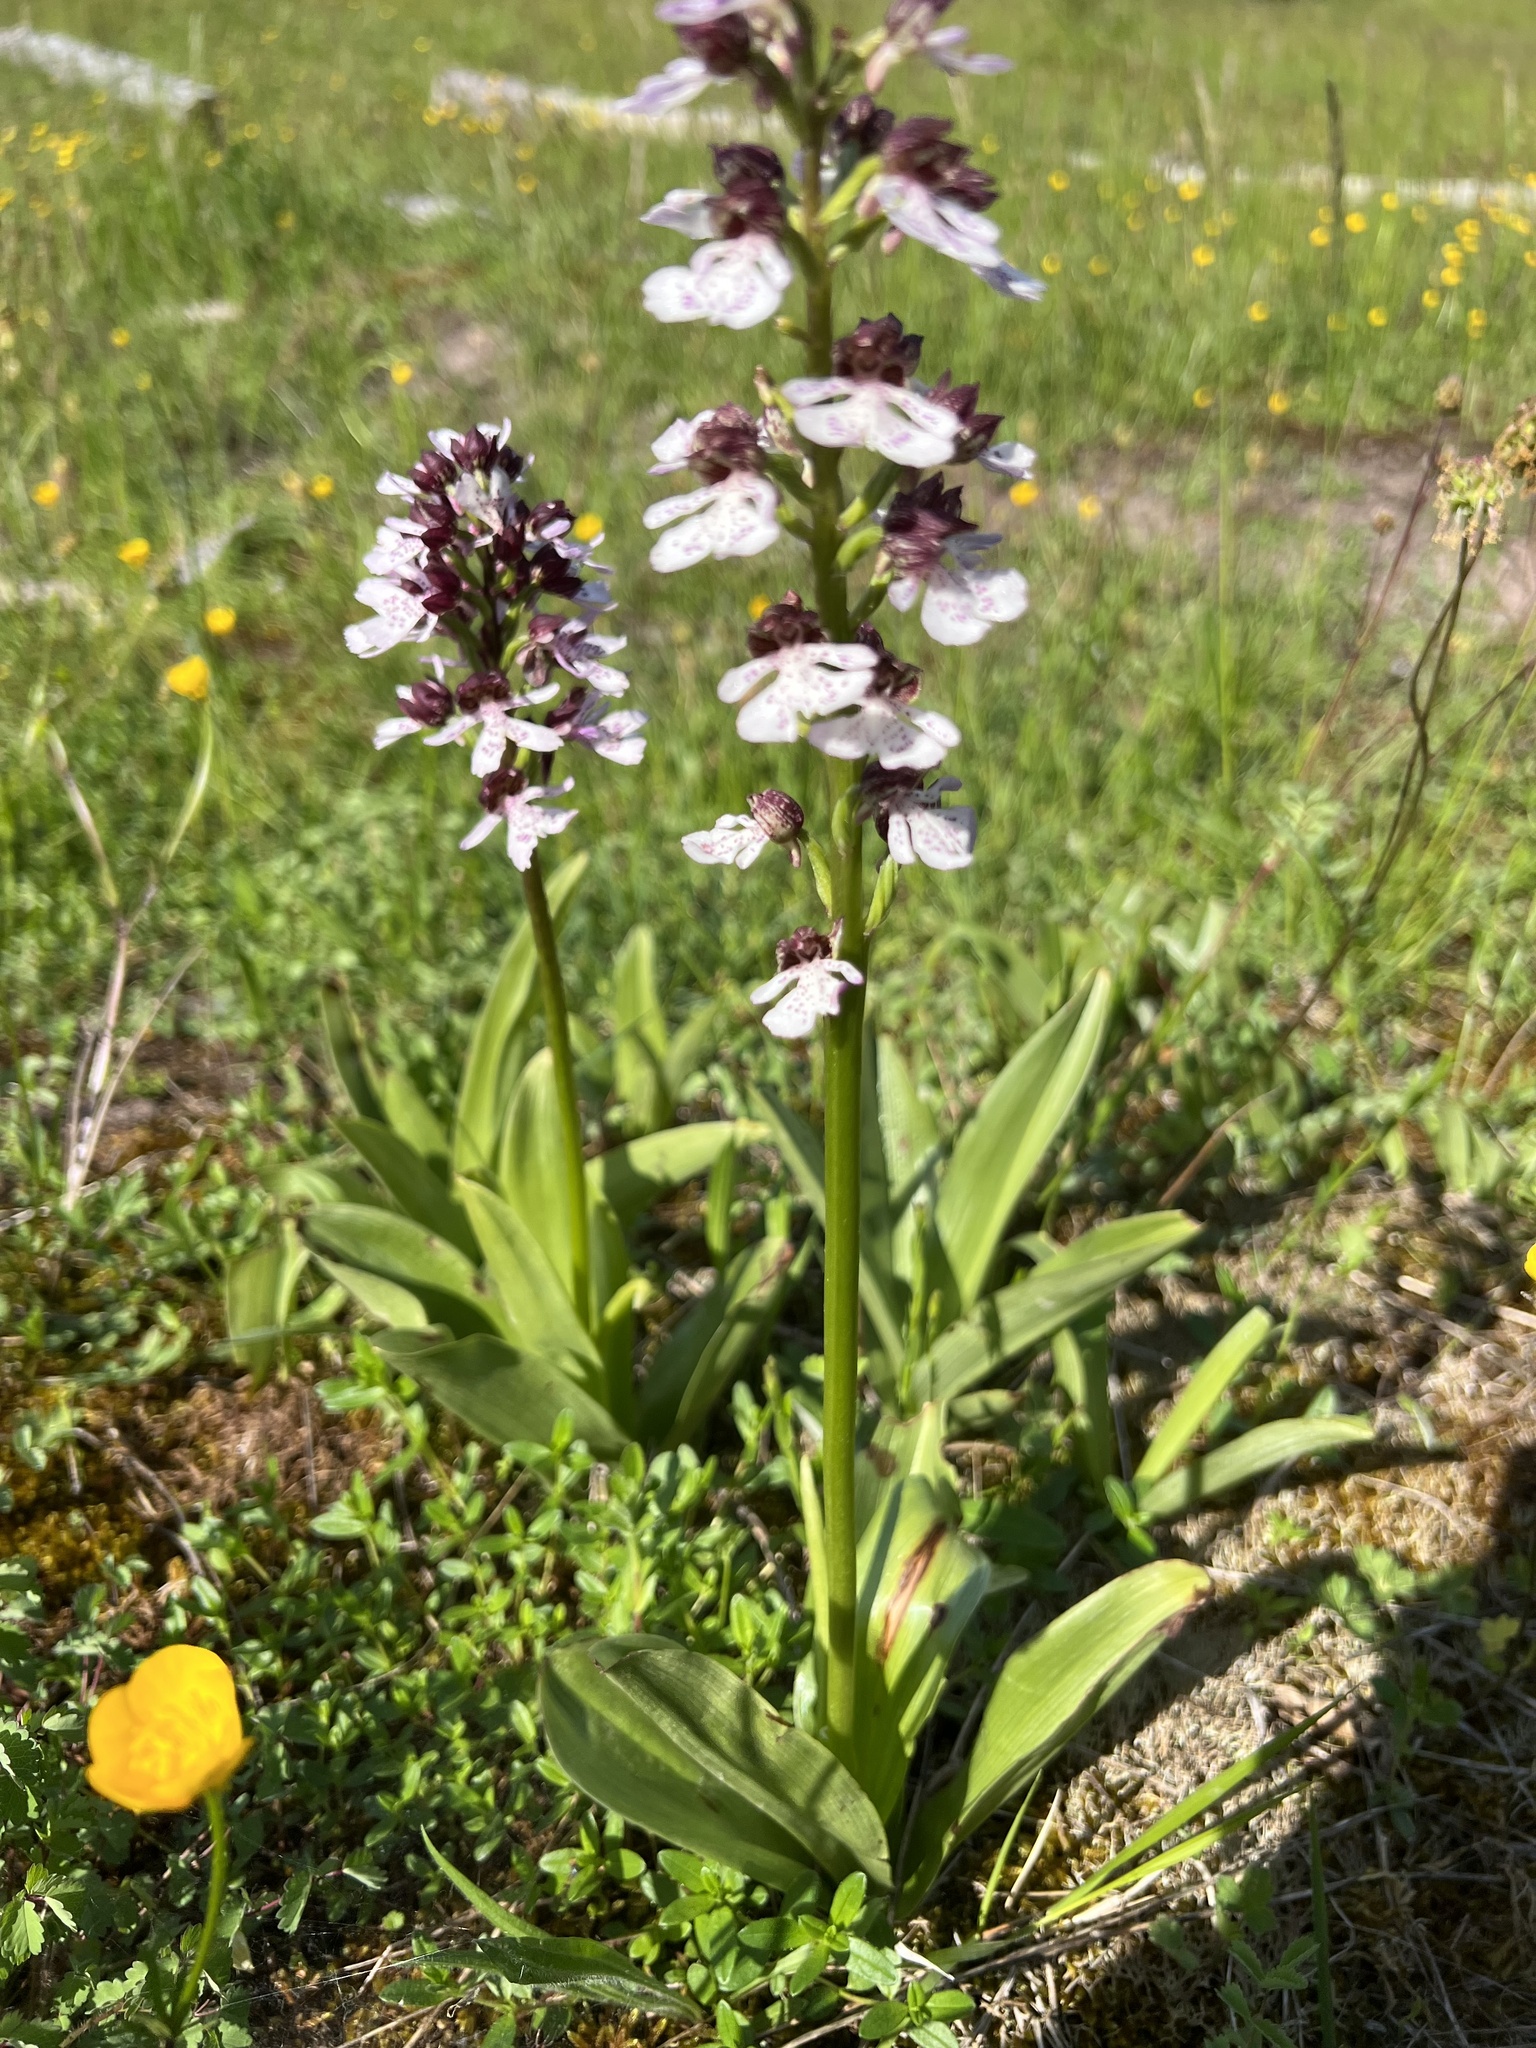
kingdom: Plantae
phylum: Tracheophyta
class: Liliopsida
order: Asparagales
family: Orchidaceae
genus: Orchis
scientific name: Orchis purpurea
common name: Lady orchid
